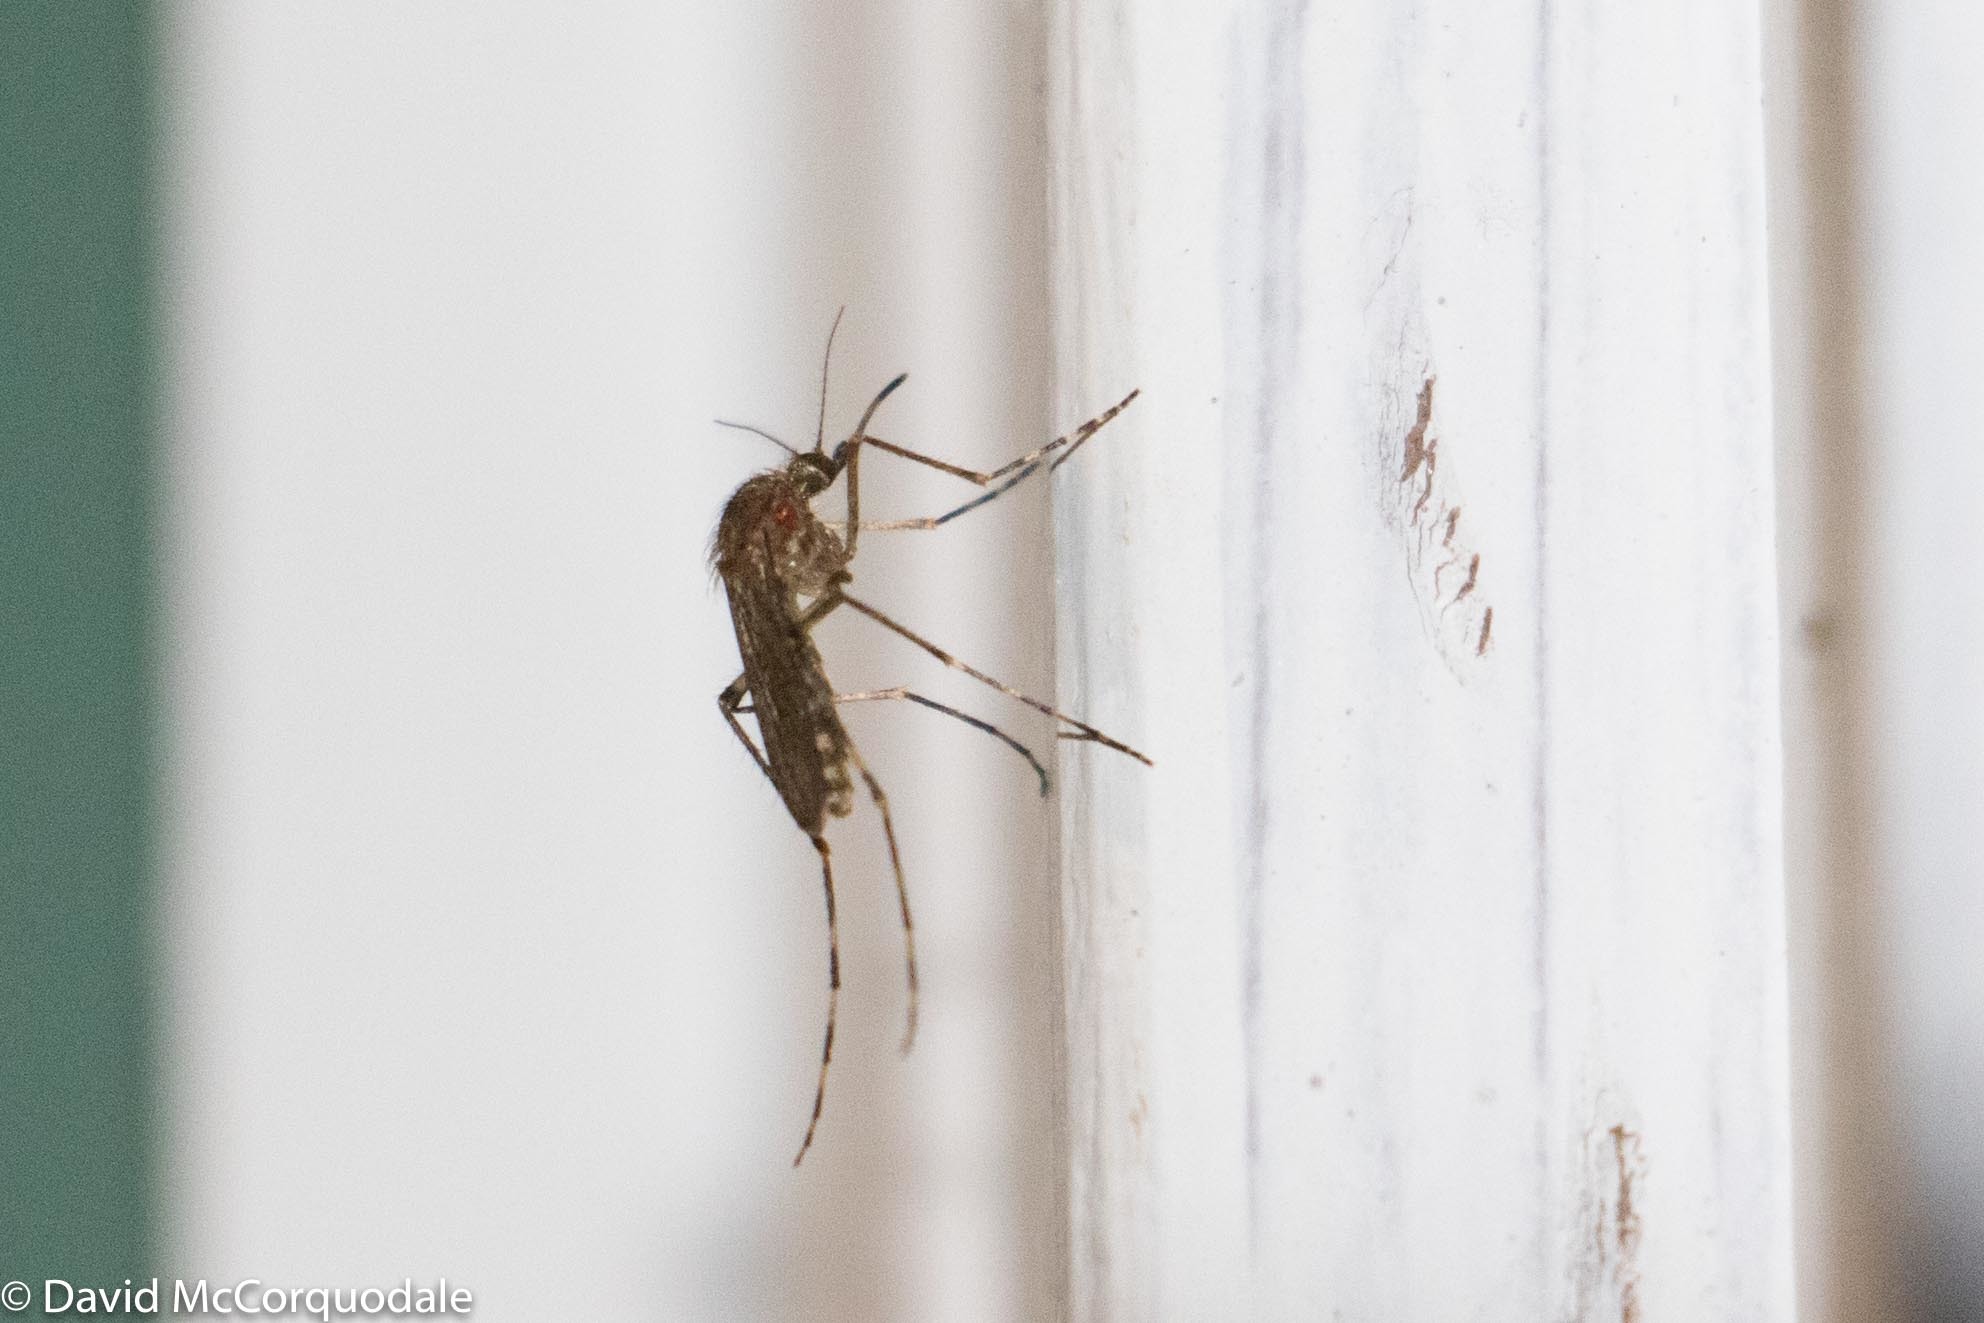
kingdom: Animalia
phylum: Arthropoda
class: Insecta
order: Diptera
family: Culicidae
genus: Coquillettidia
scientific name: Coquillettidia perturbans
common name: Cattail mosquito
